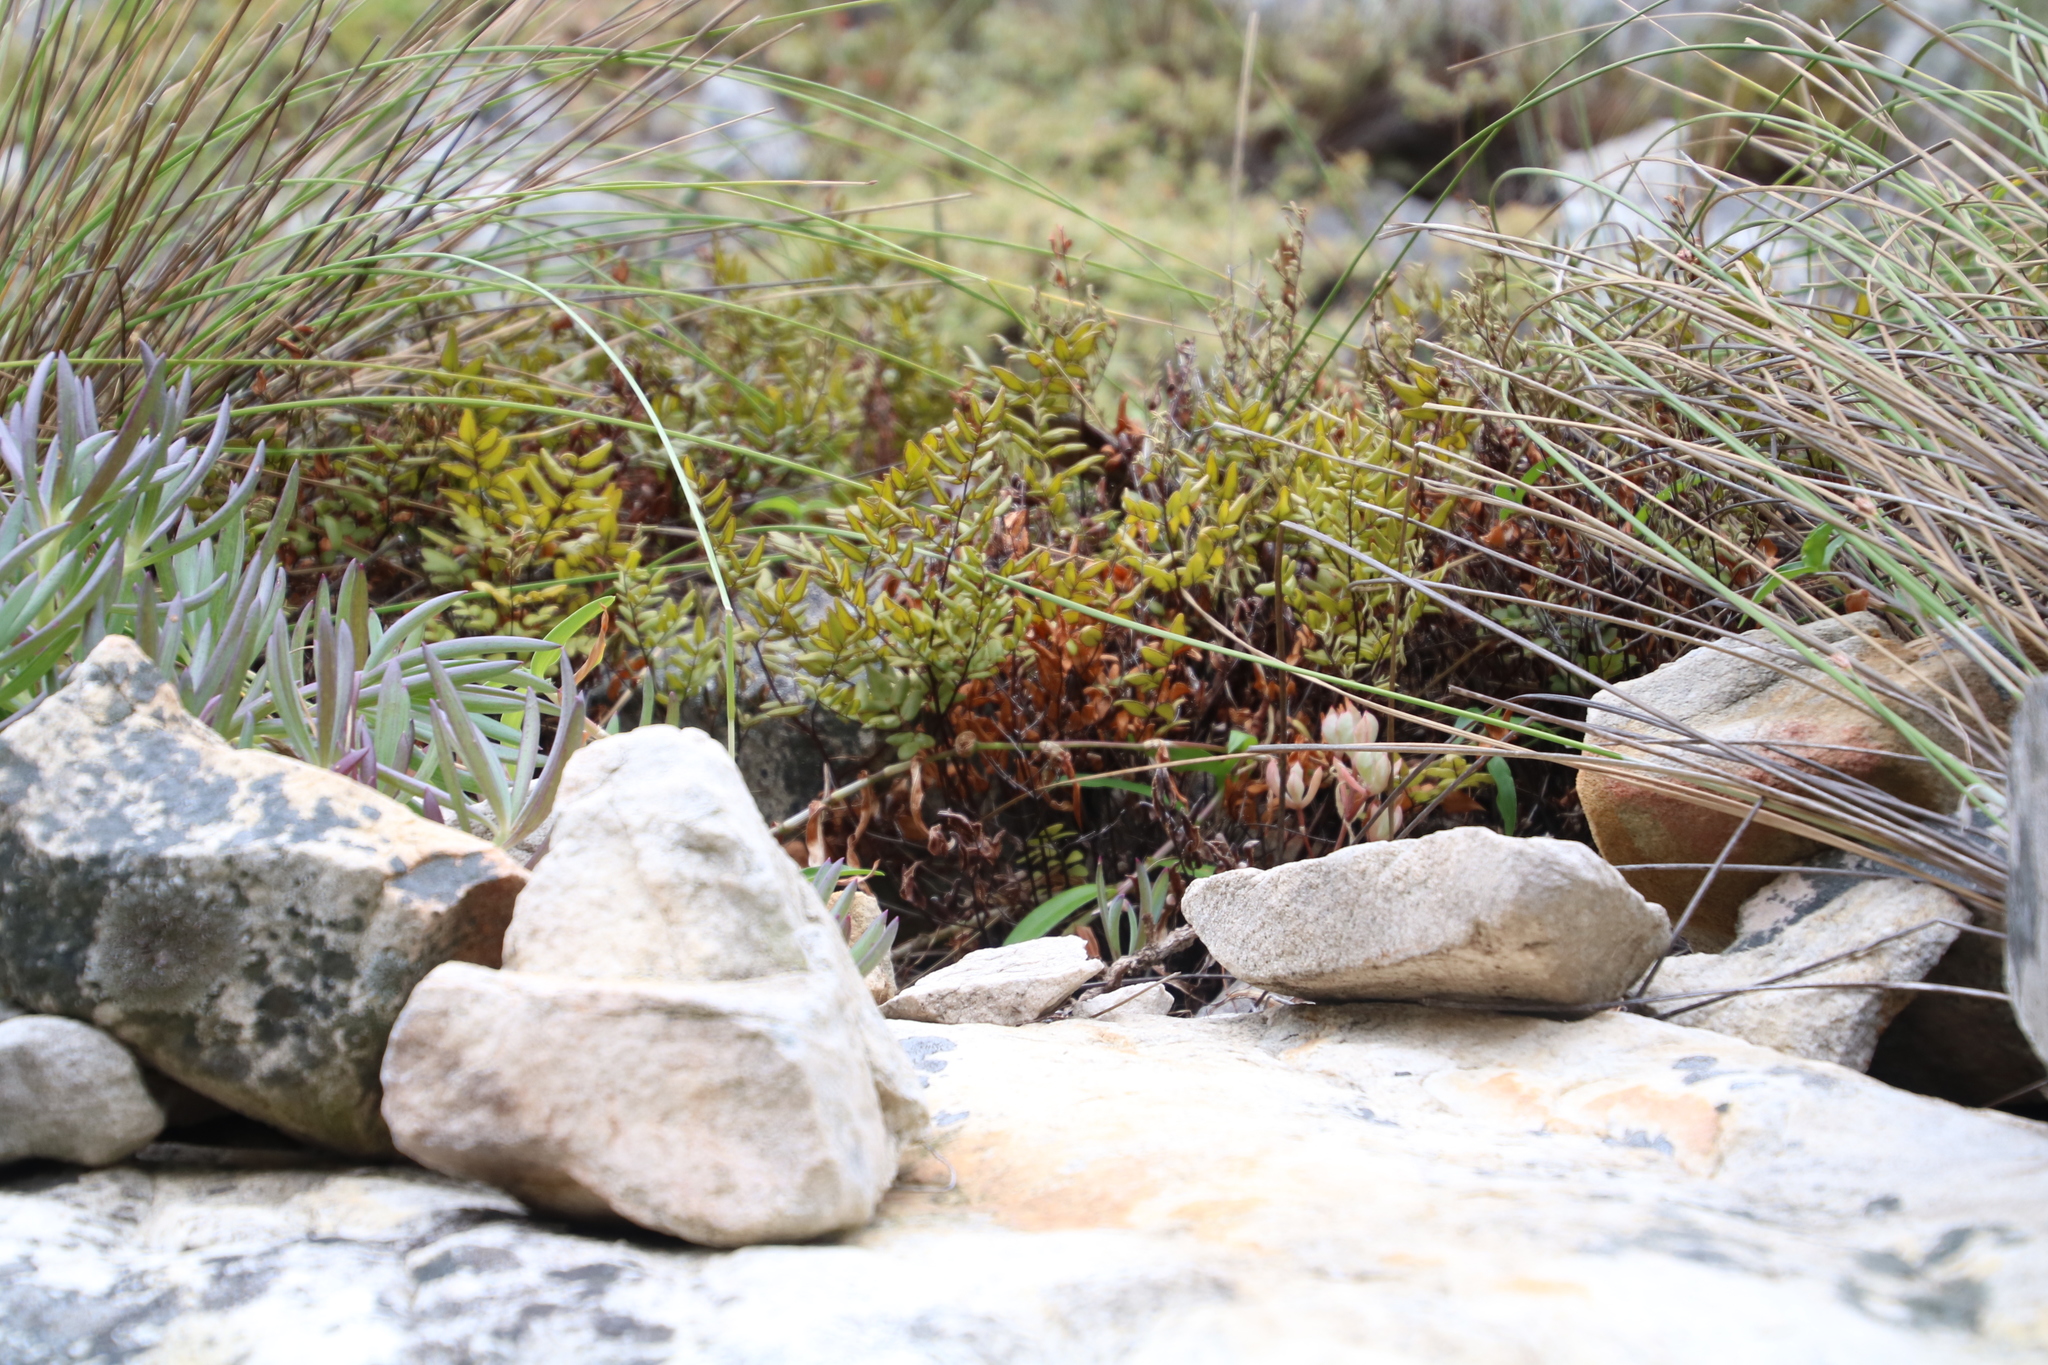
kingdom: Plantae
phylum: Tracheophyta
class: Polypodiopsida
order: Polypodiales
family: Pteridaceae
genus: Pellaea
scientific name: Pellaea pteroides
